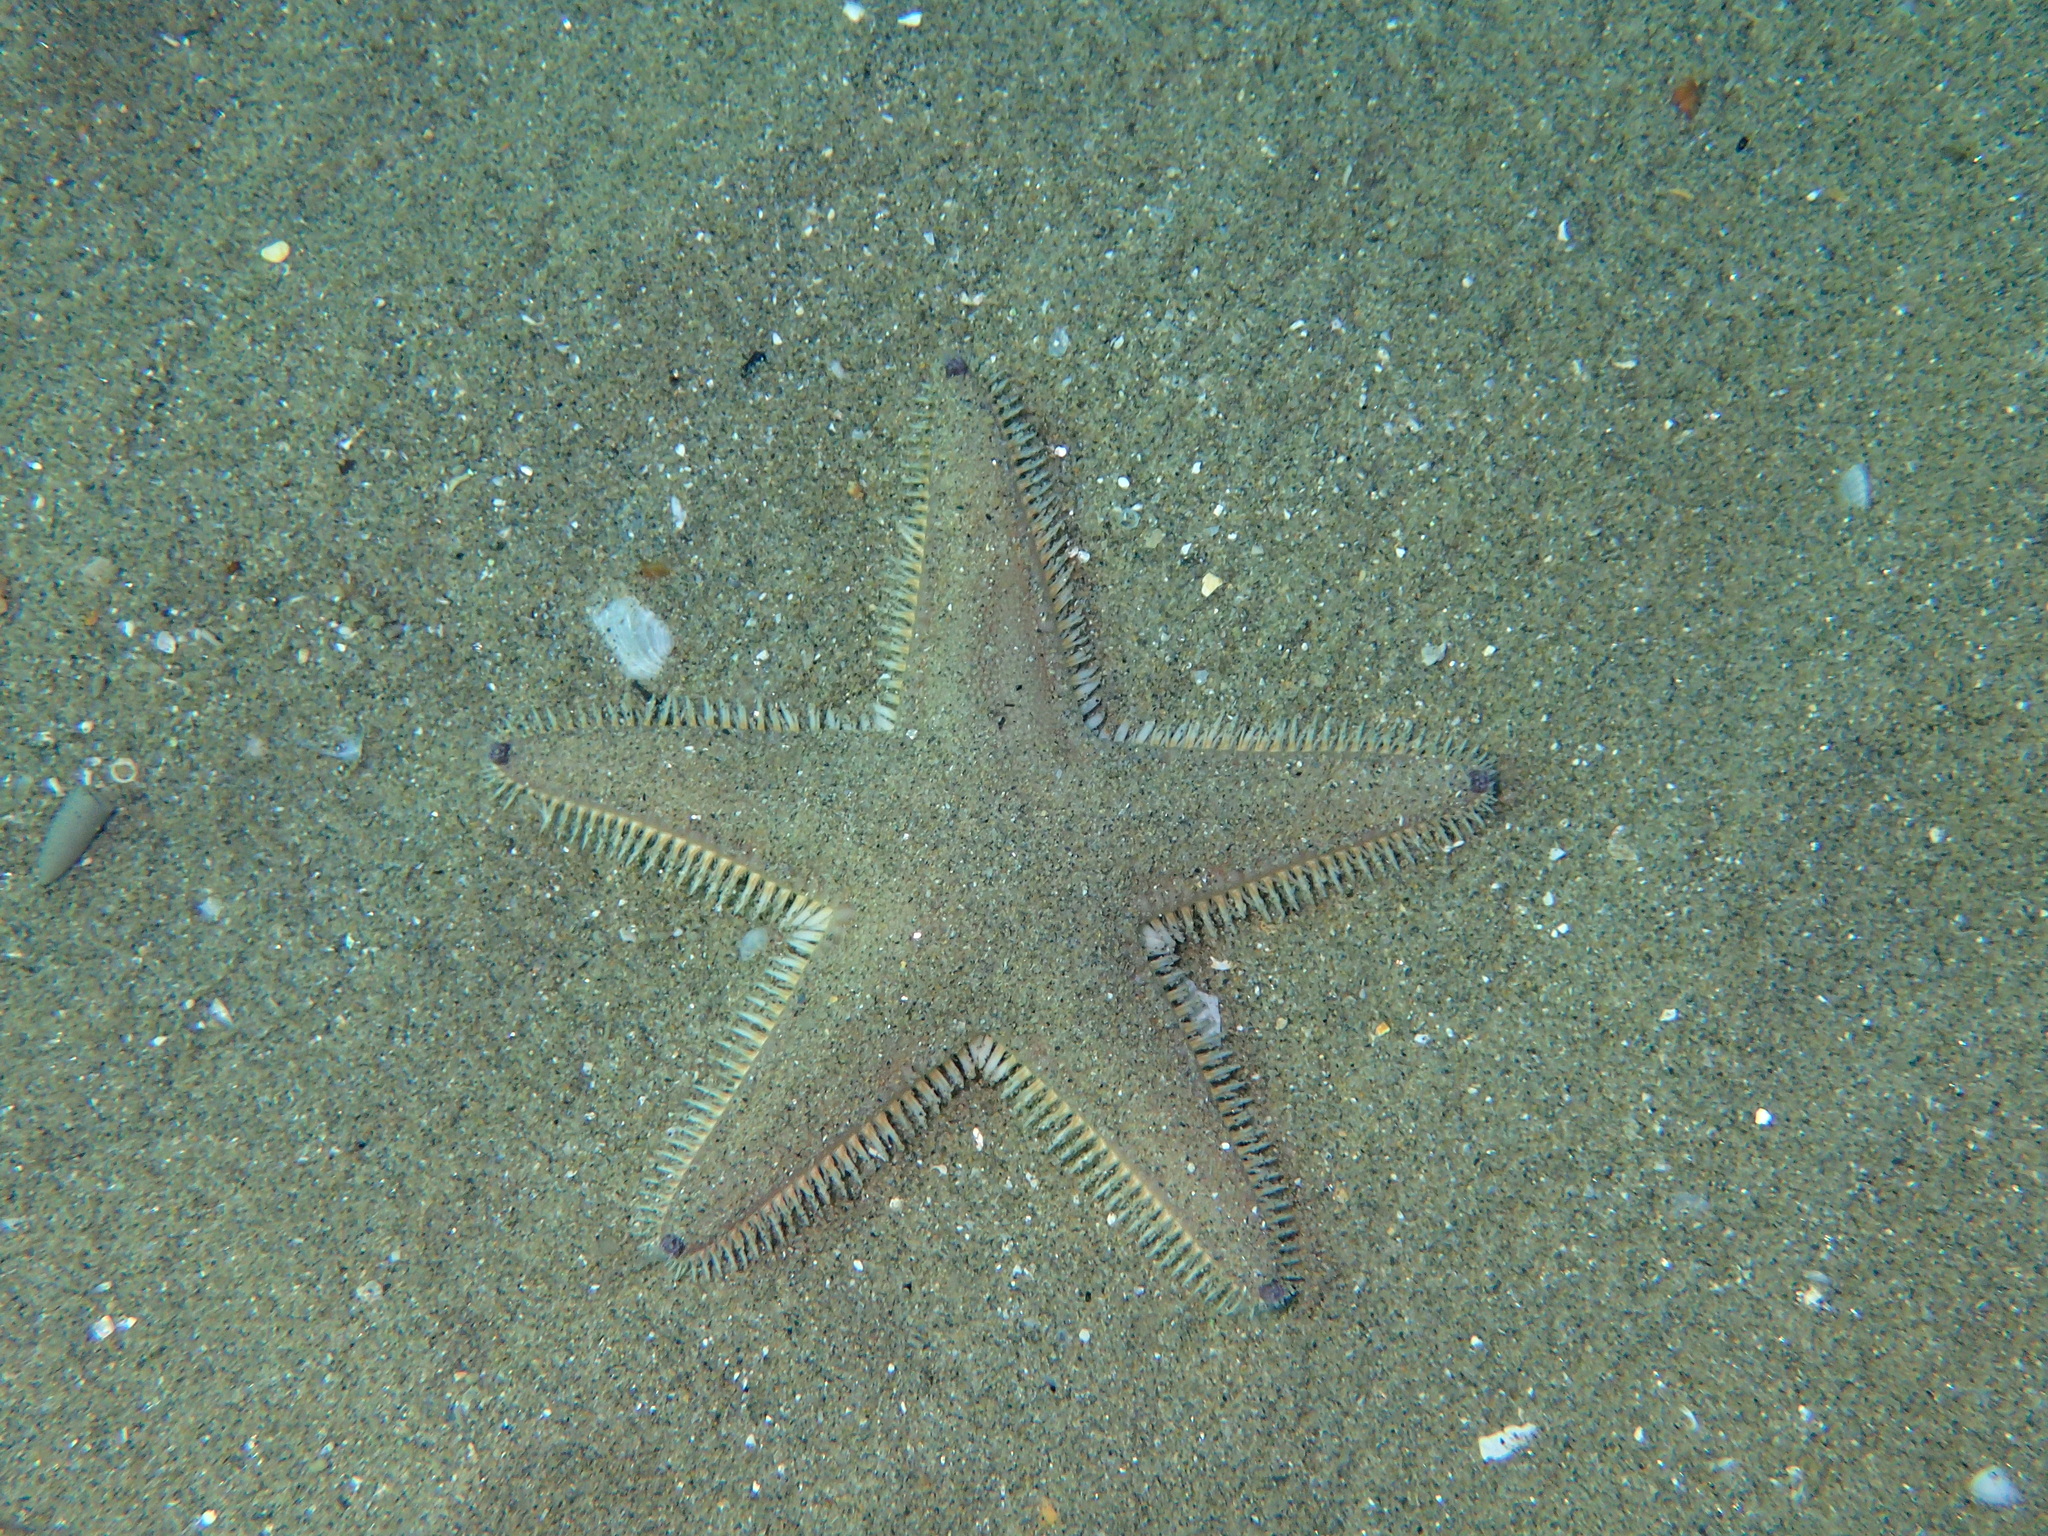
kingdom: Animalia
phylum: Echinodermata
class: Asteroidea
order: Paxillosida
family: Astropectinidae
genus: Astropecten
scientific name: Astropecten jonstoni
